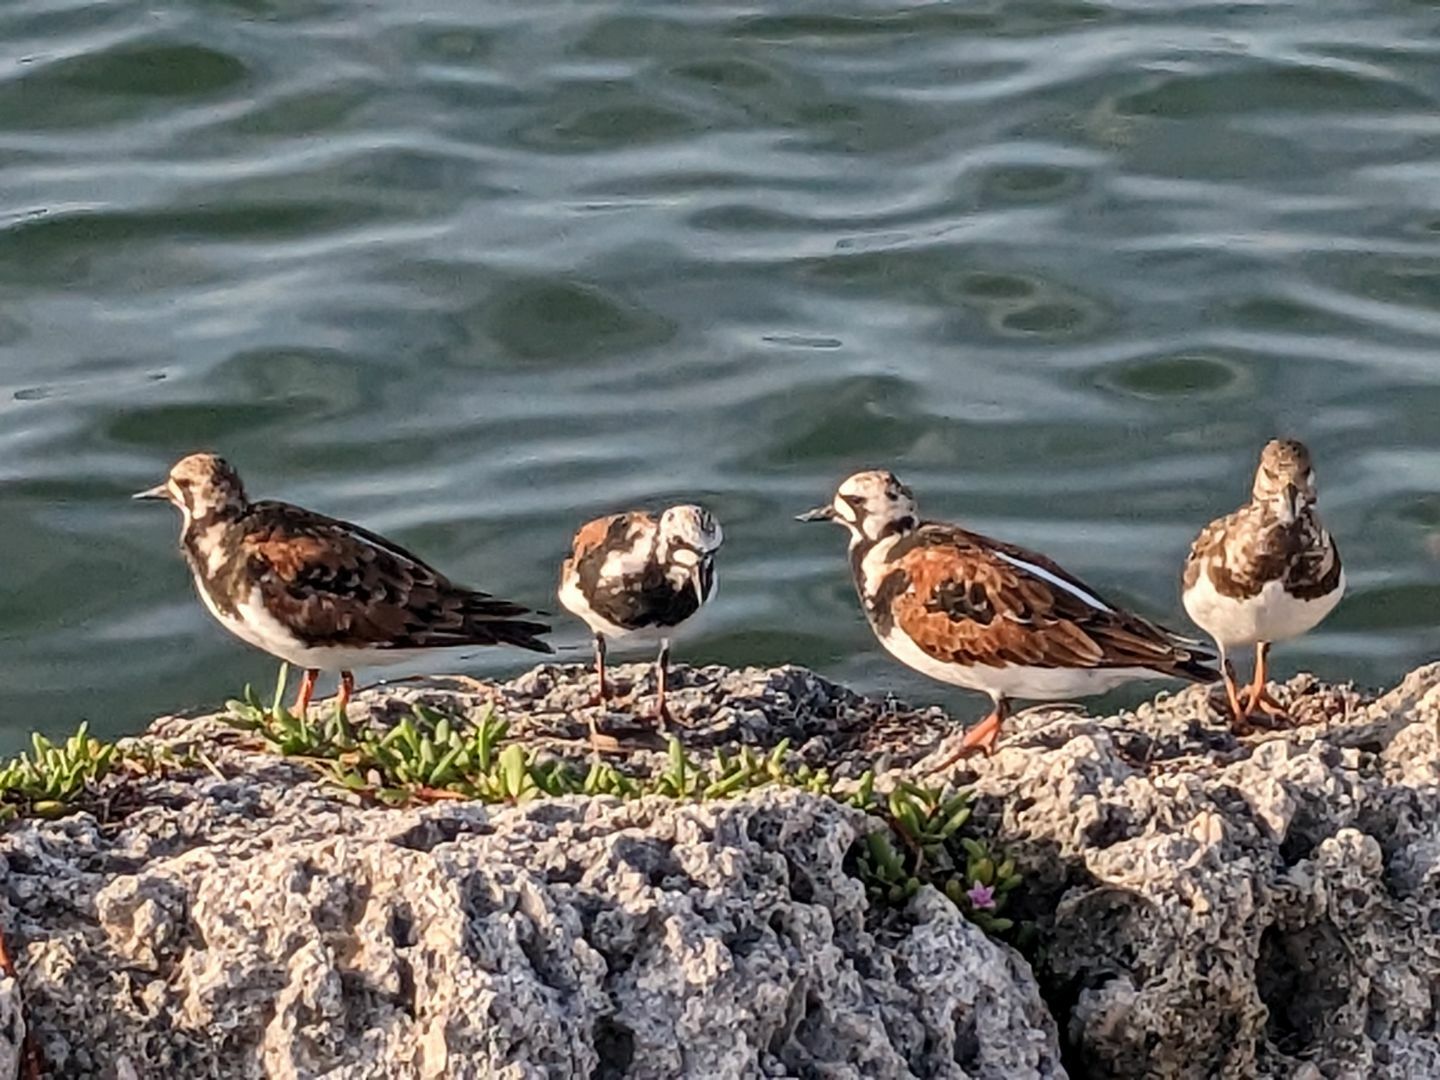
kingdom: Animalia
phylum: Chordata
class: Aves
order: Charadriiformes
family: Scolopacidae
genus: Arenaria
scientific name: Arenaria interpres
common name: Ruddy turnstone
